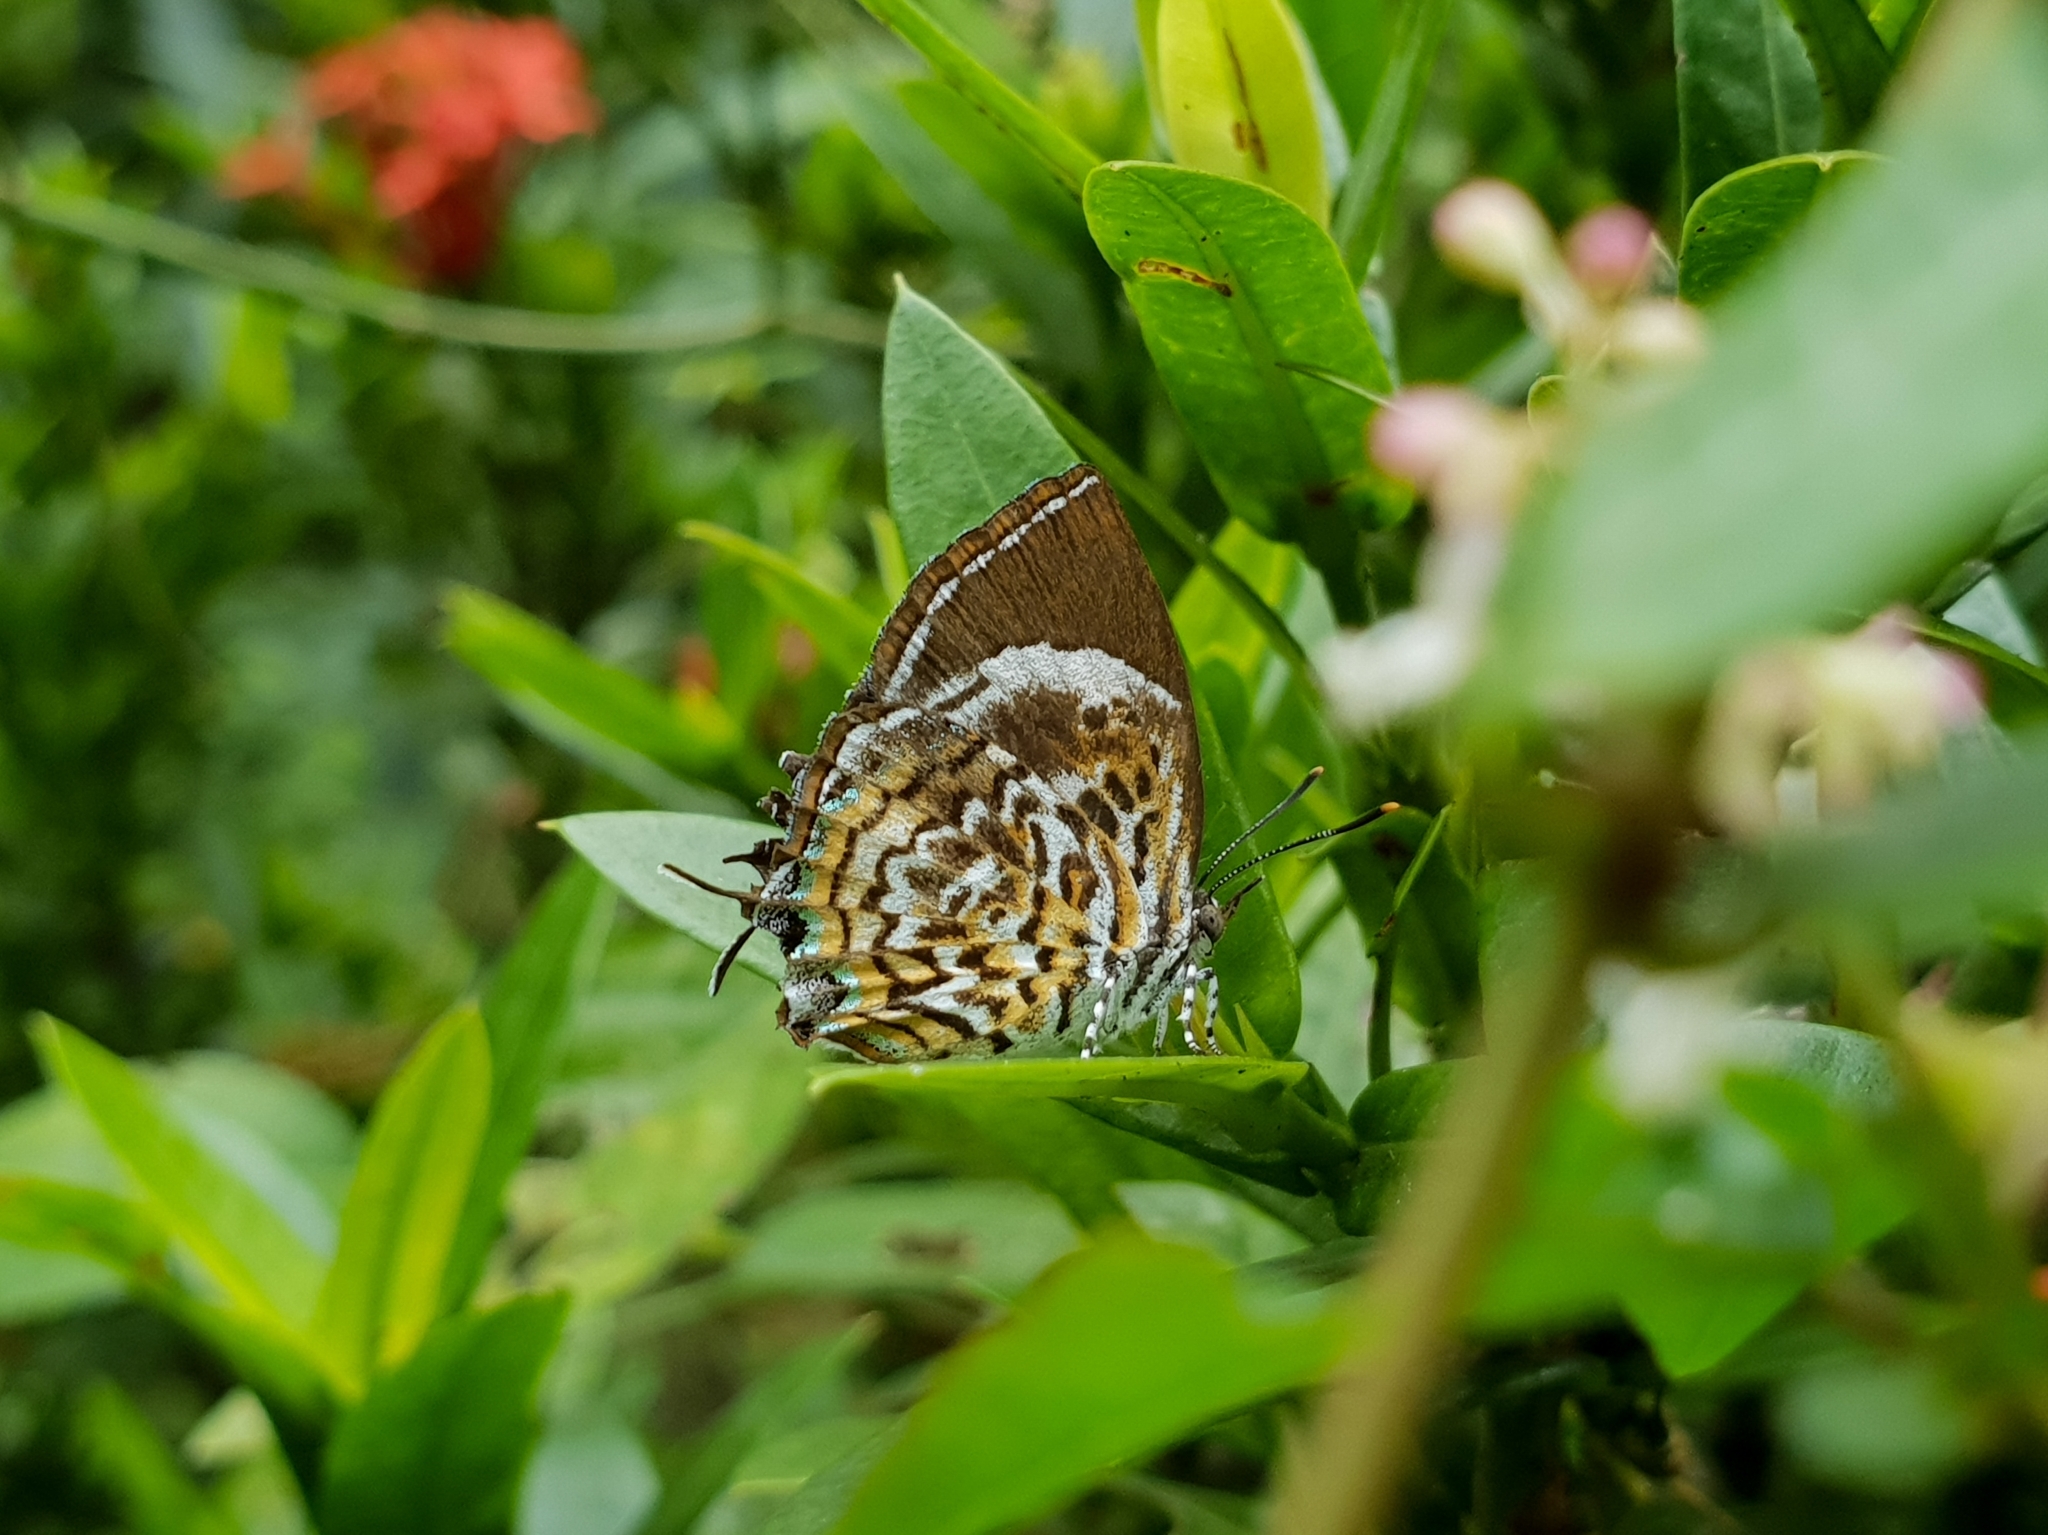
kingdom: Animalia
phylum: Arthropoda
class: Insecta
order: Lepidoptera
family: Lycaenidae
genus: Rathinda
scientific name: Rathinda amor
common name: Monkey puzzle
